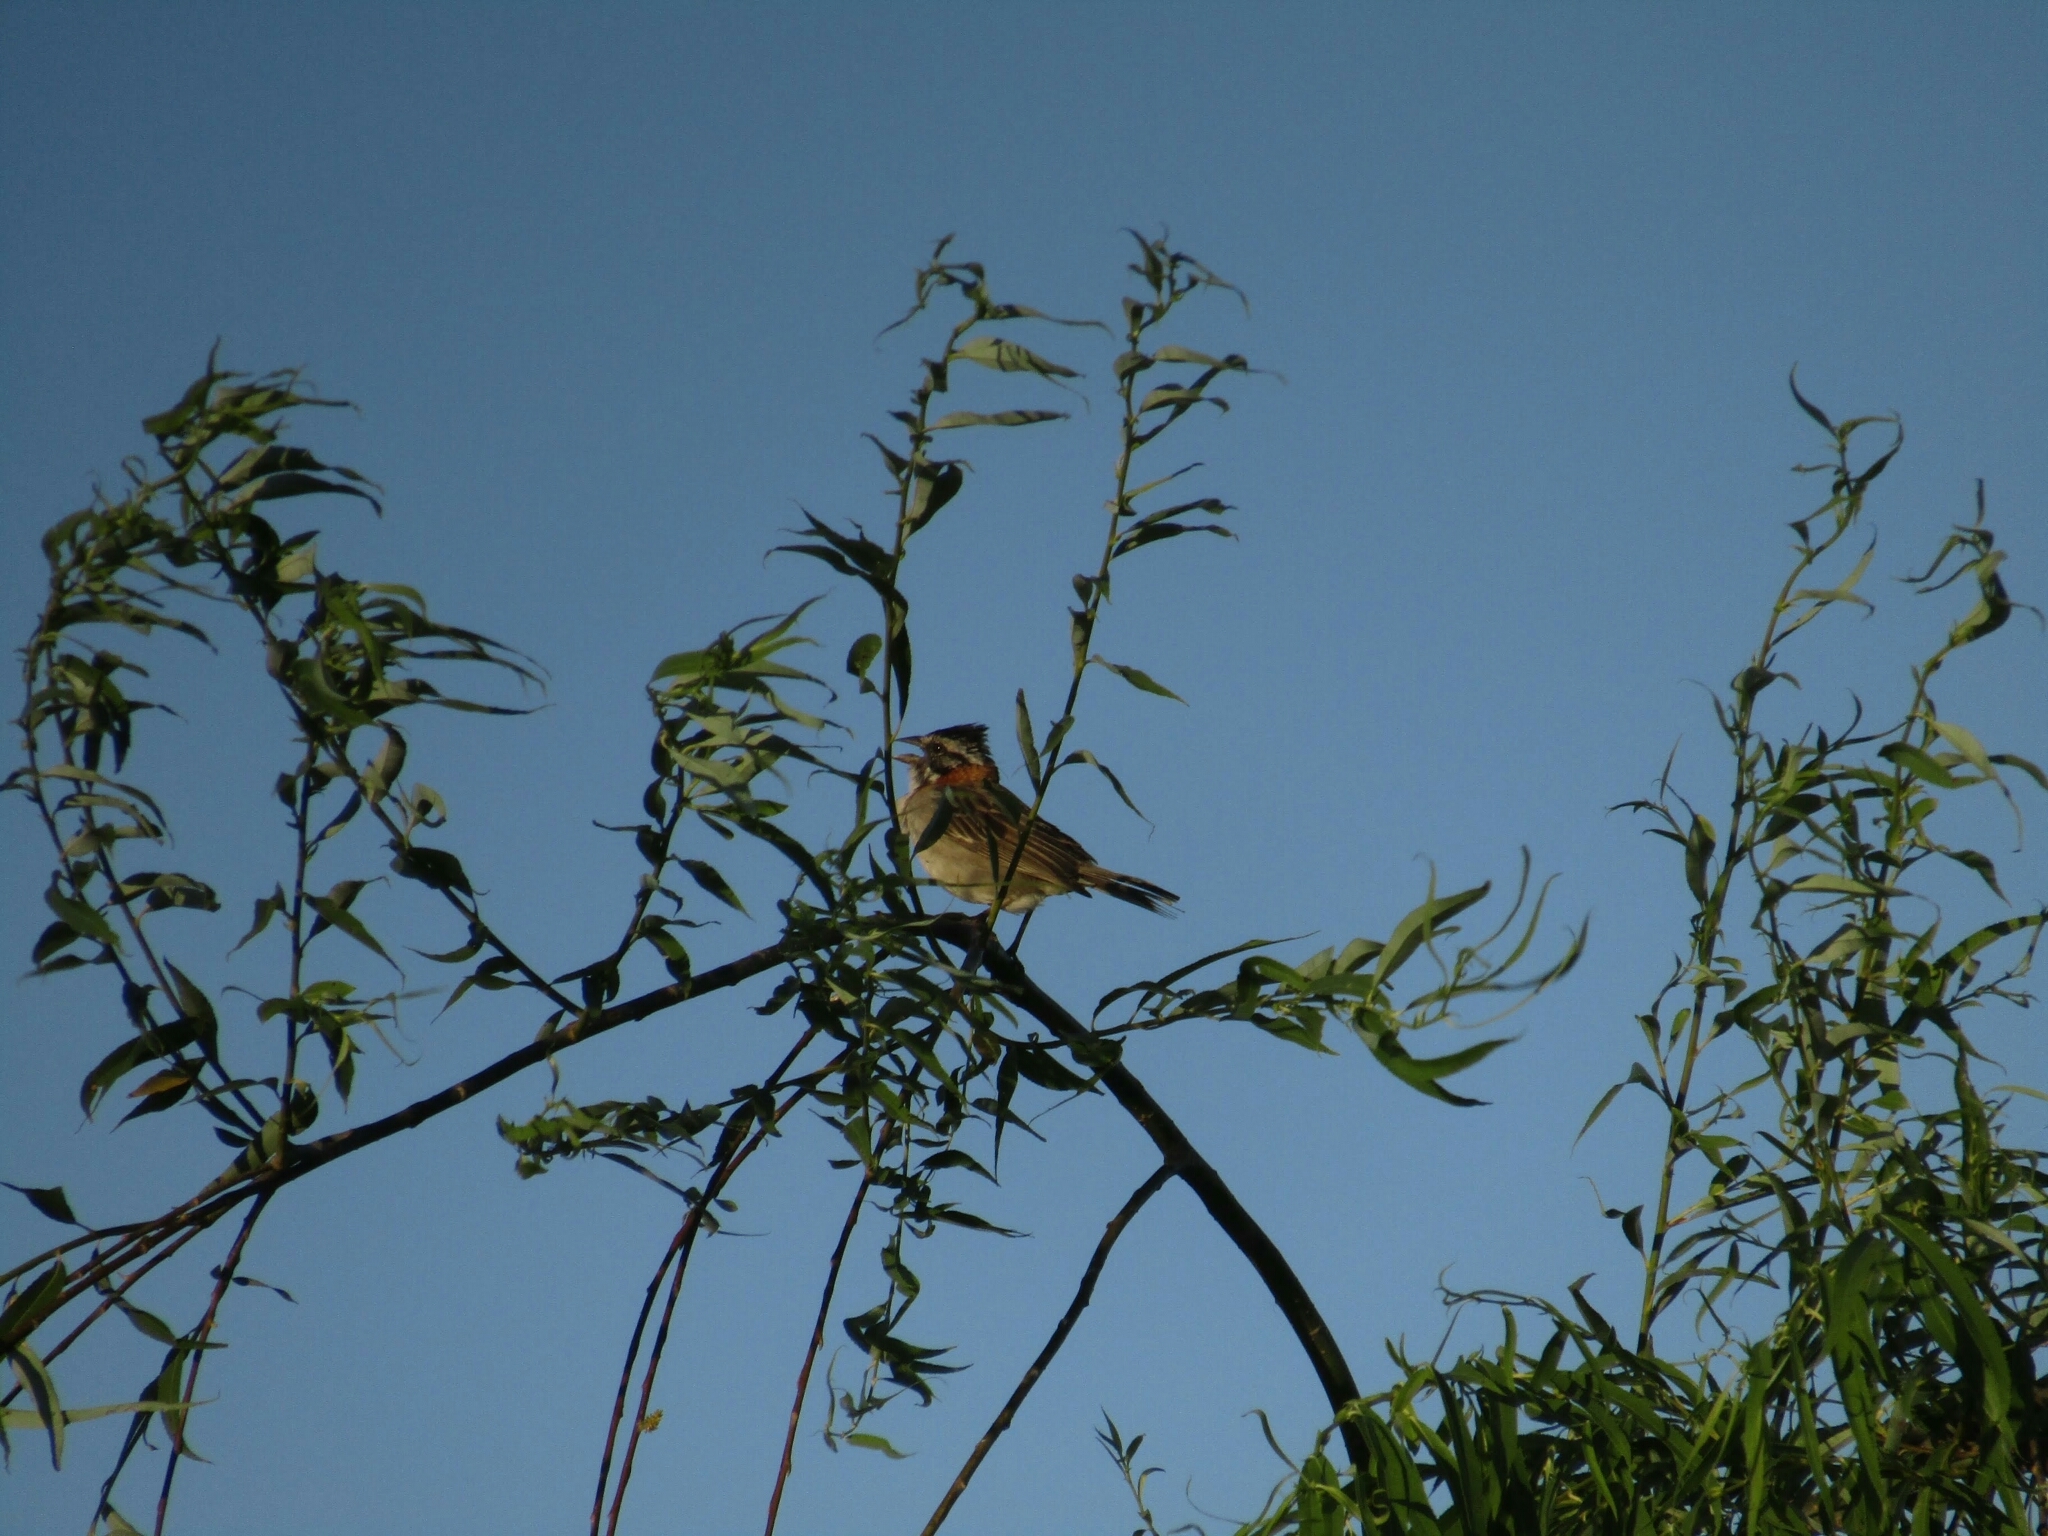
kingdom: Animalia
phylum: Chordata
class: Aves
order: Passeriformes
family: Passerellidae
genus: Zonotrichia
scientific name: Zonotrichia capensis
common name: Rufous-collared sparrow
